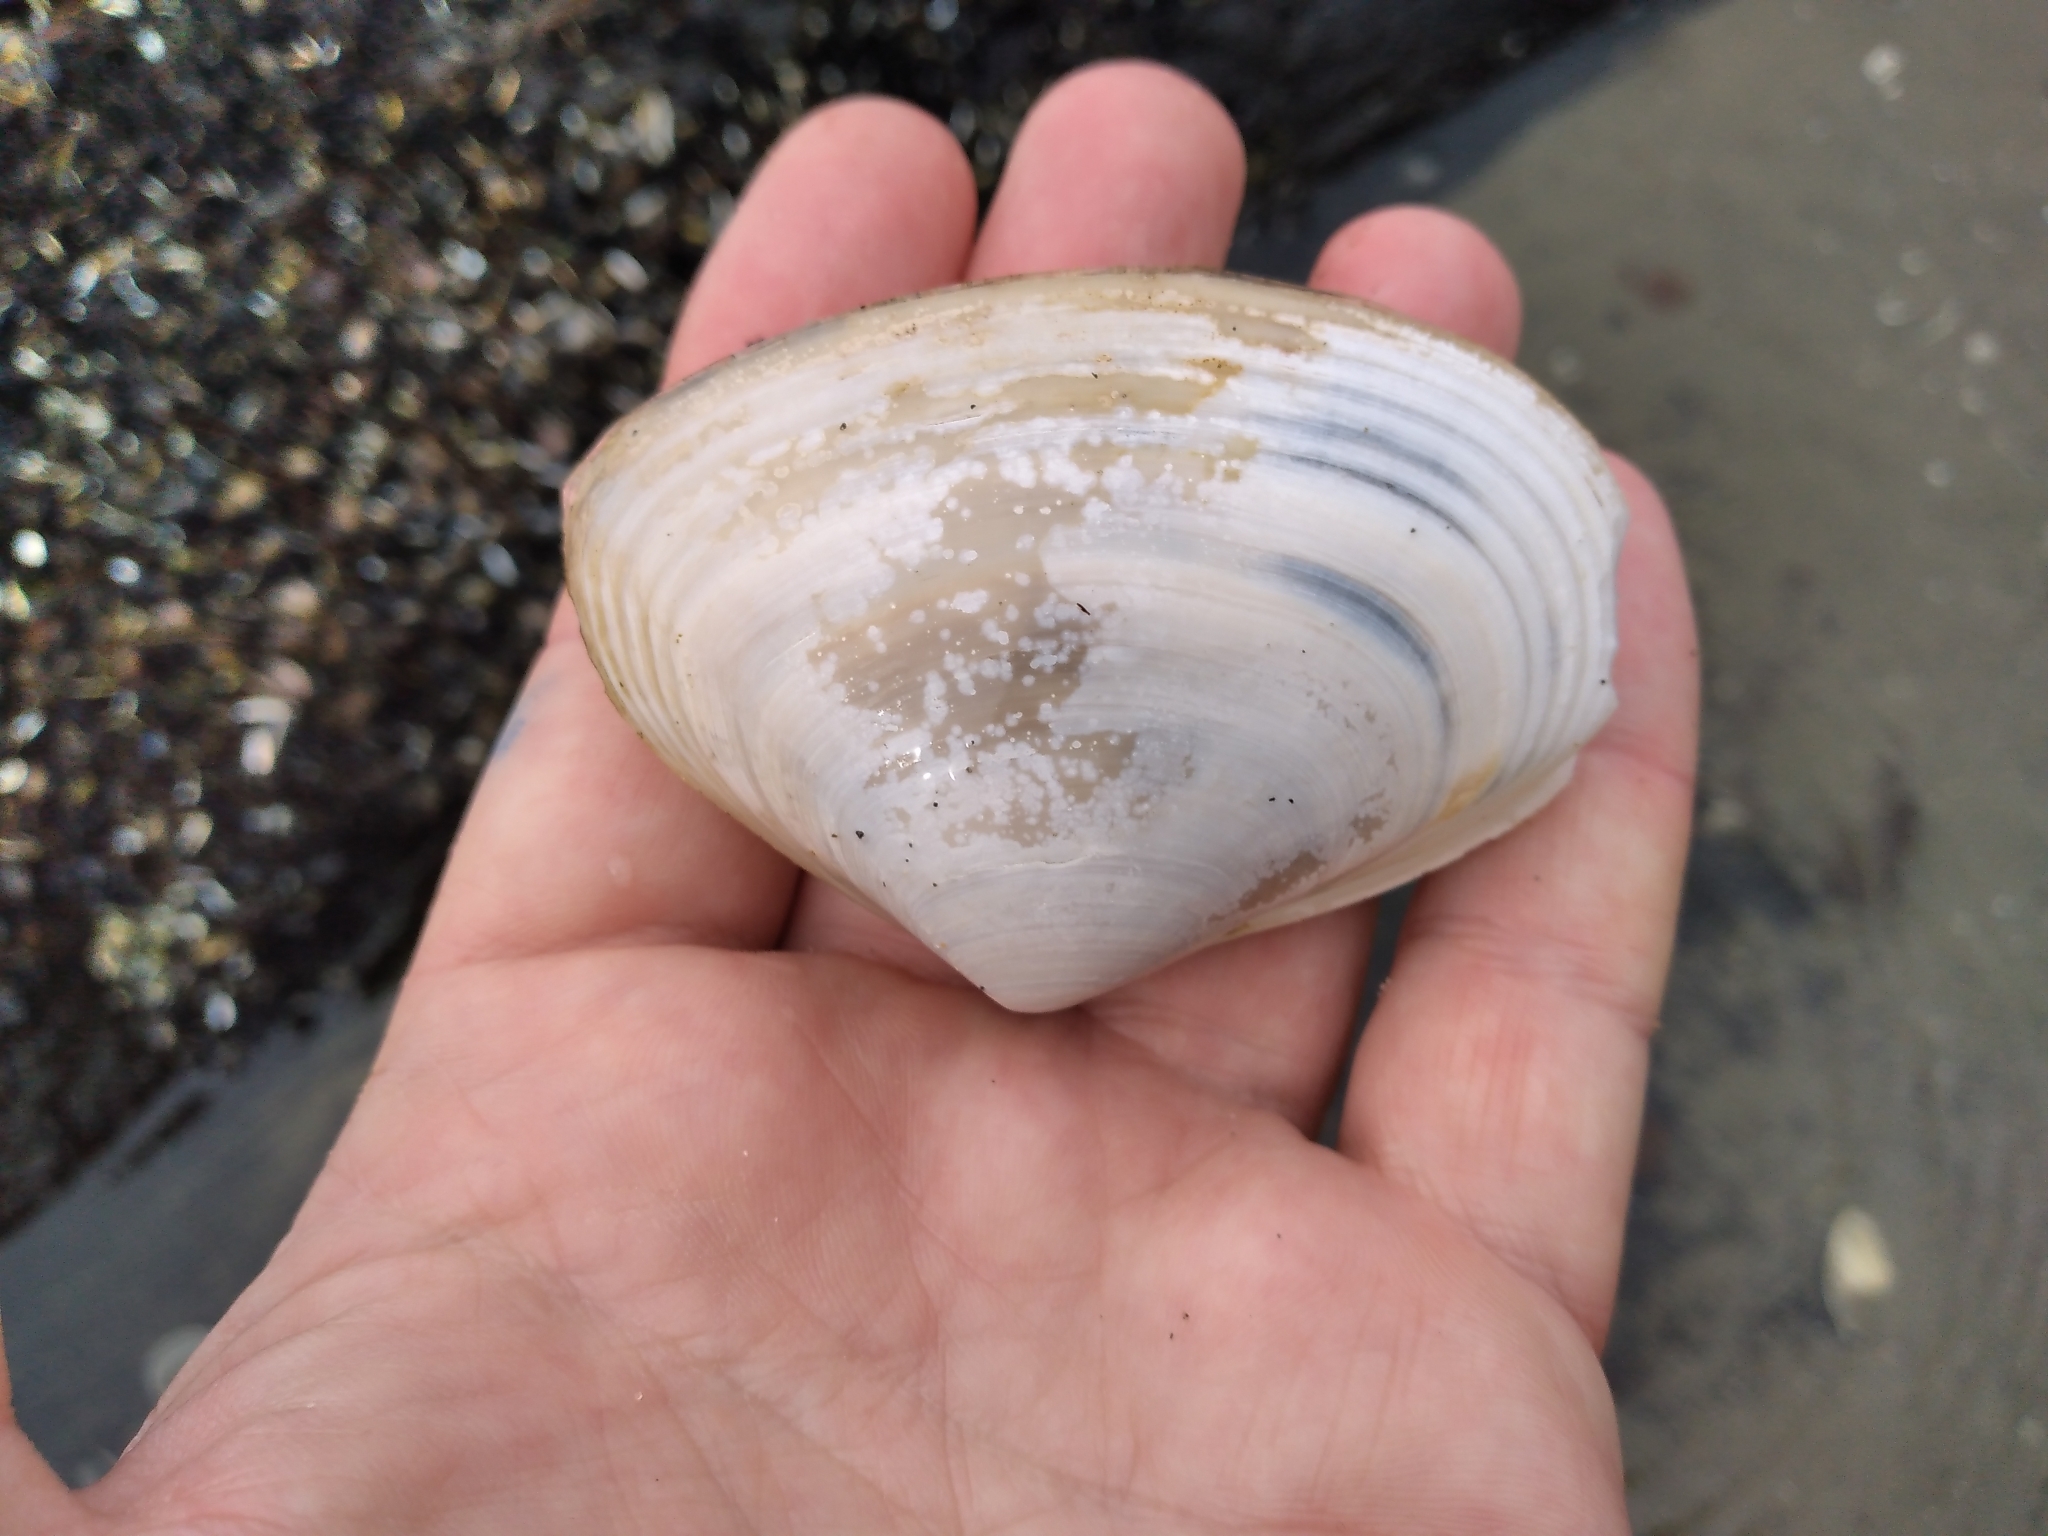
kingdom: Animalia
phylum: Mollusca
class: Bivalvia
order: Venerida
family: Mesodesmatidae
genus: Paphies
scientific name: Paphies donacina
